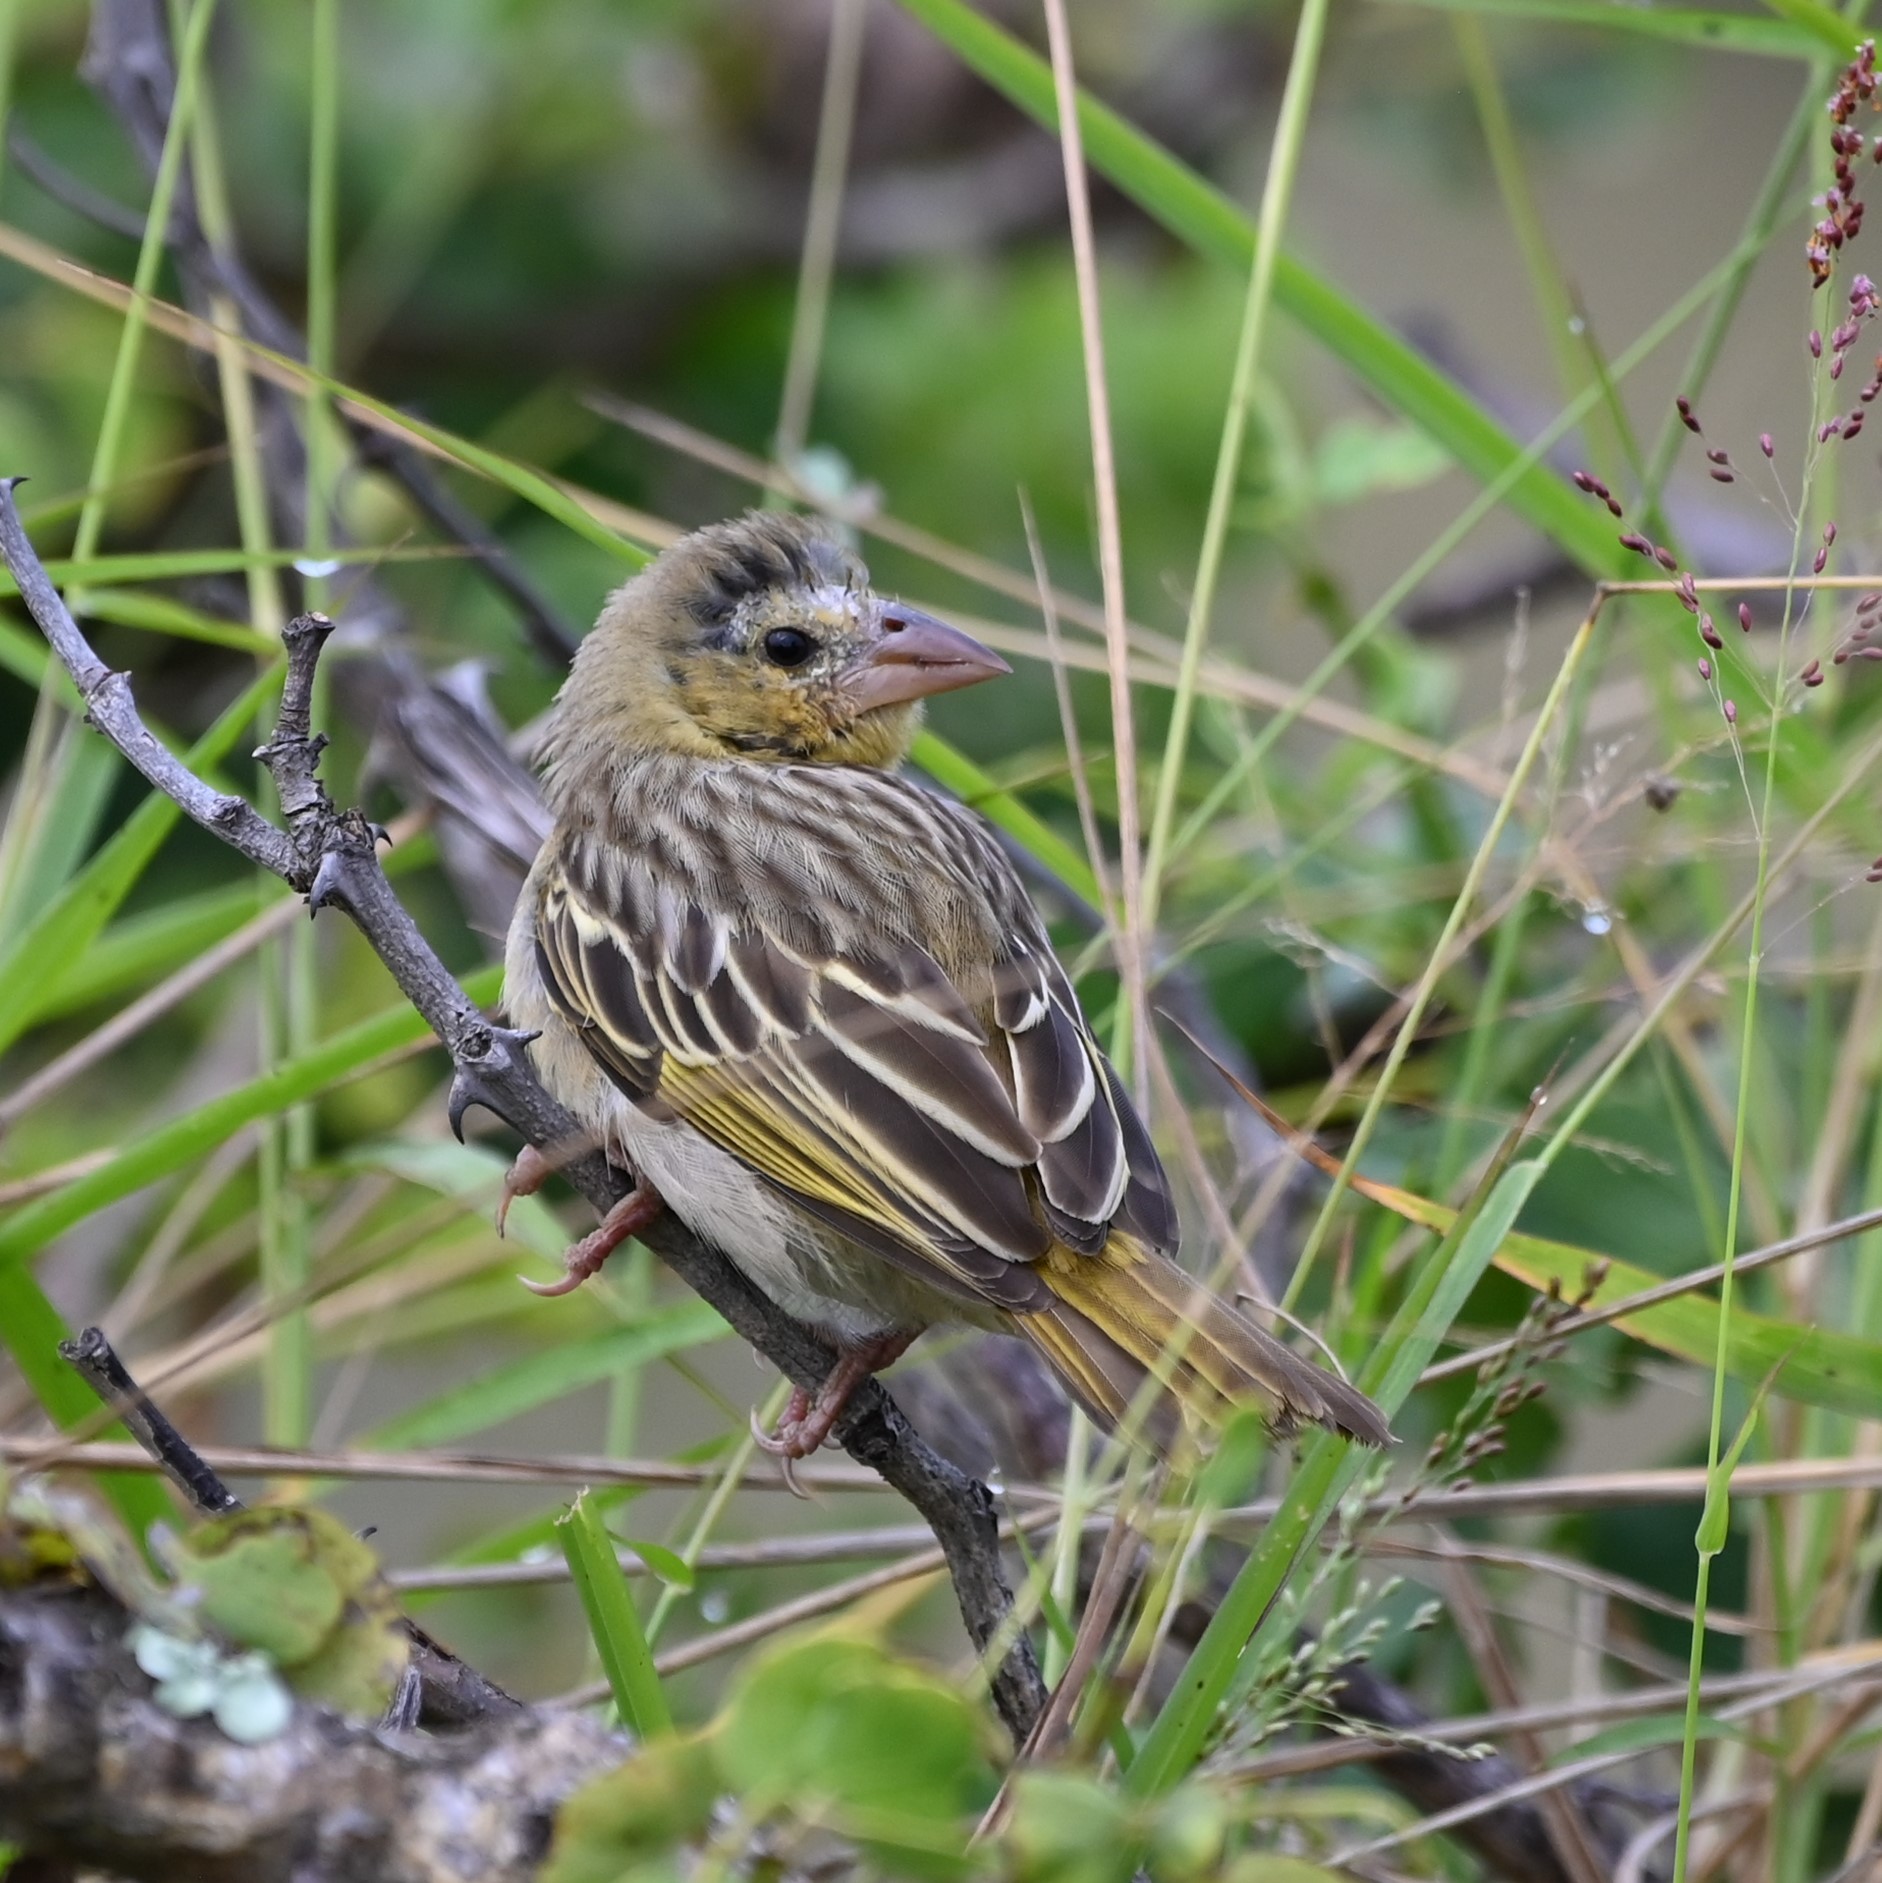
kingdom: Animalia
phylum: Chordata
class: Aves
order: Passeriformes
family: Ploceidae
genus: Ploceus
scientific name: Ploceus velatus
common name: Southern masked weaver
